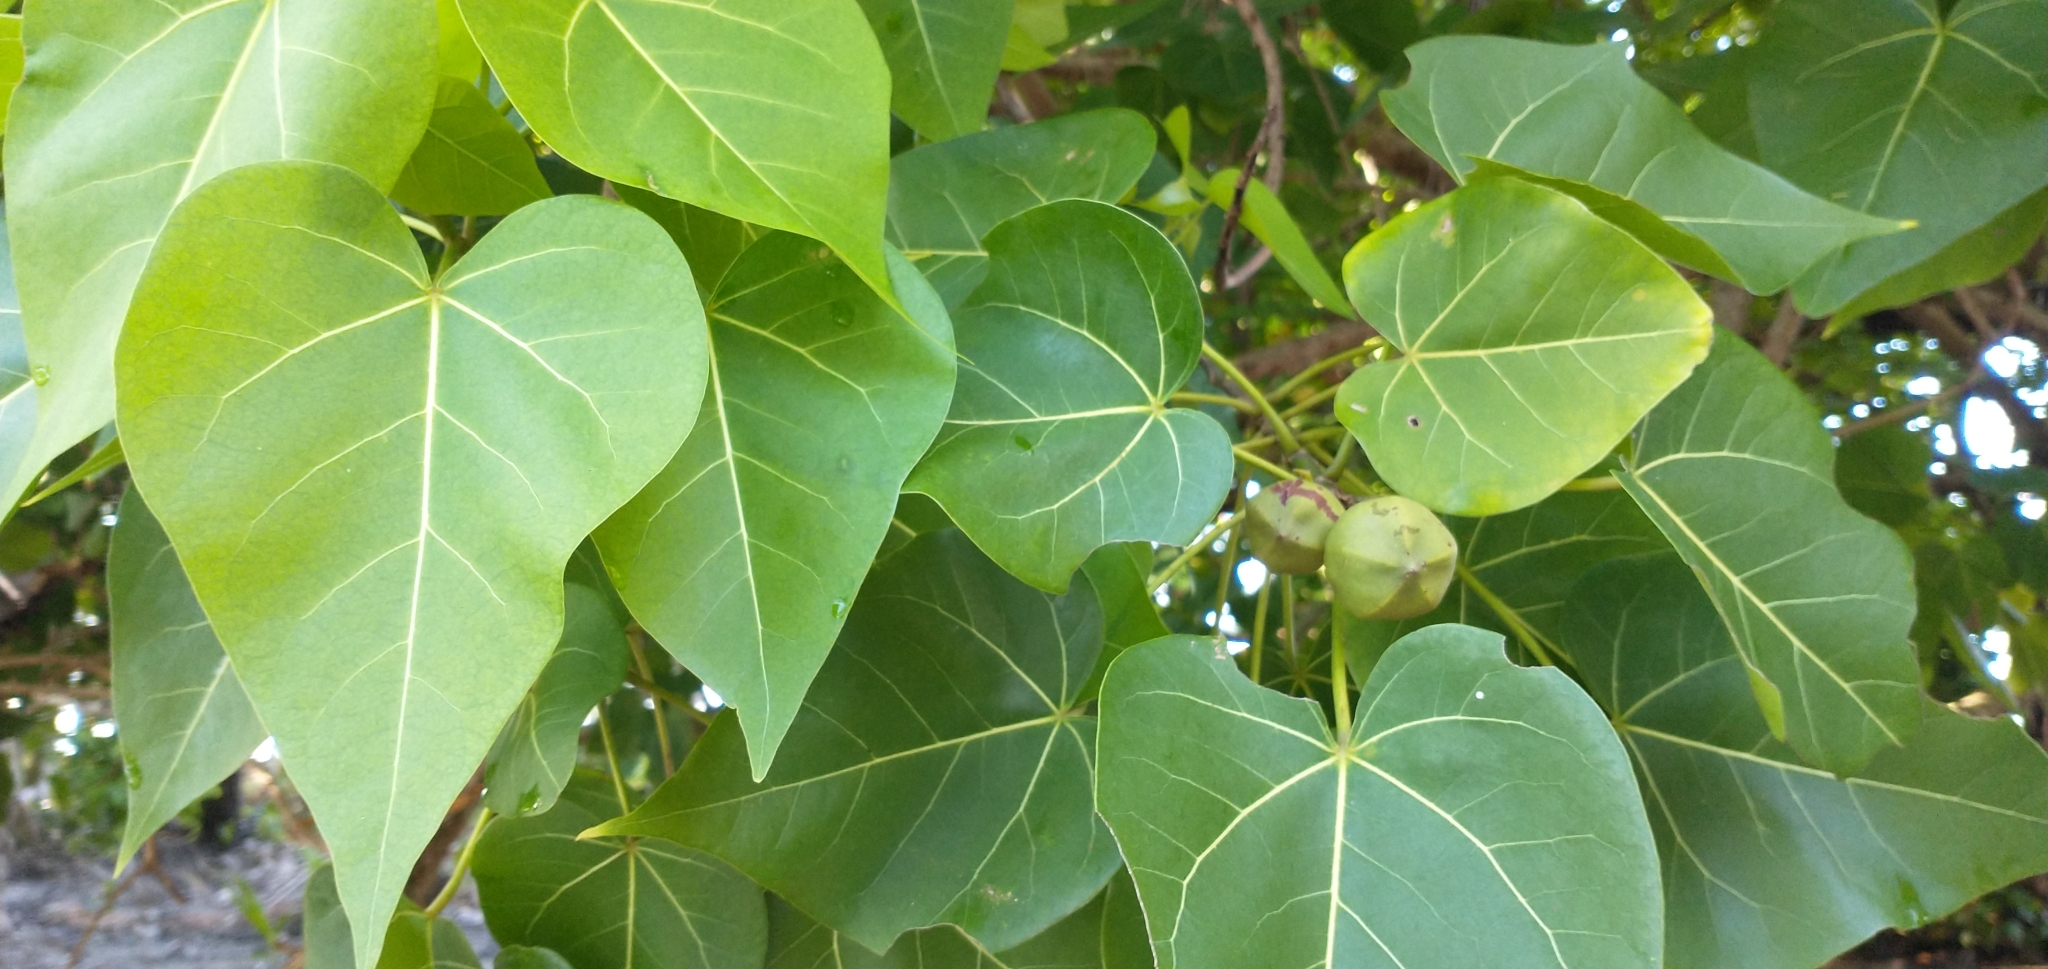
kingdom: Plantae
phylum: Tracheophyta
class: Magnoliopsida
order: Malvales
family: Malvaceae
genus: Thespesia
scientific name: Thespesia populnea
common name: Seaside mahoe
